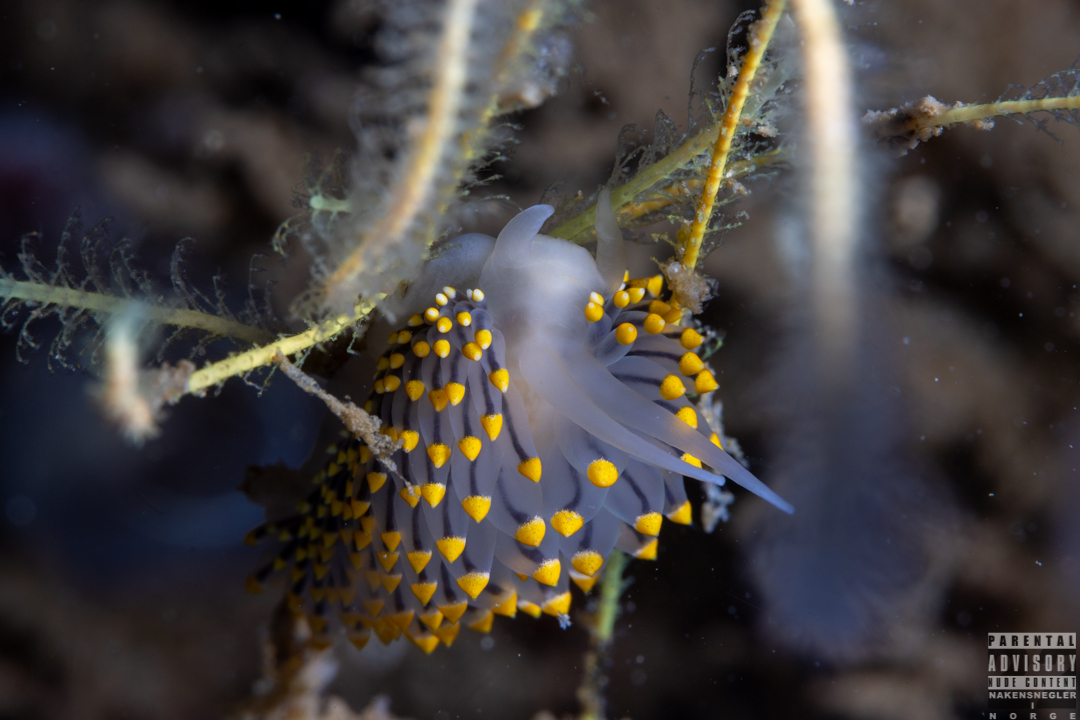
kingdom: Animalia
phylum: Mollusca
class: Gastropoda
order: Nudibranchia
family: Eubranchidae
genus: Eubranchus
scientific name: Eubranchus tricolor
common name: Painted balloon aeolis
